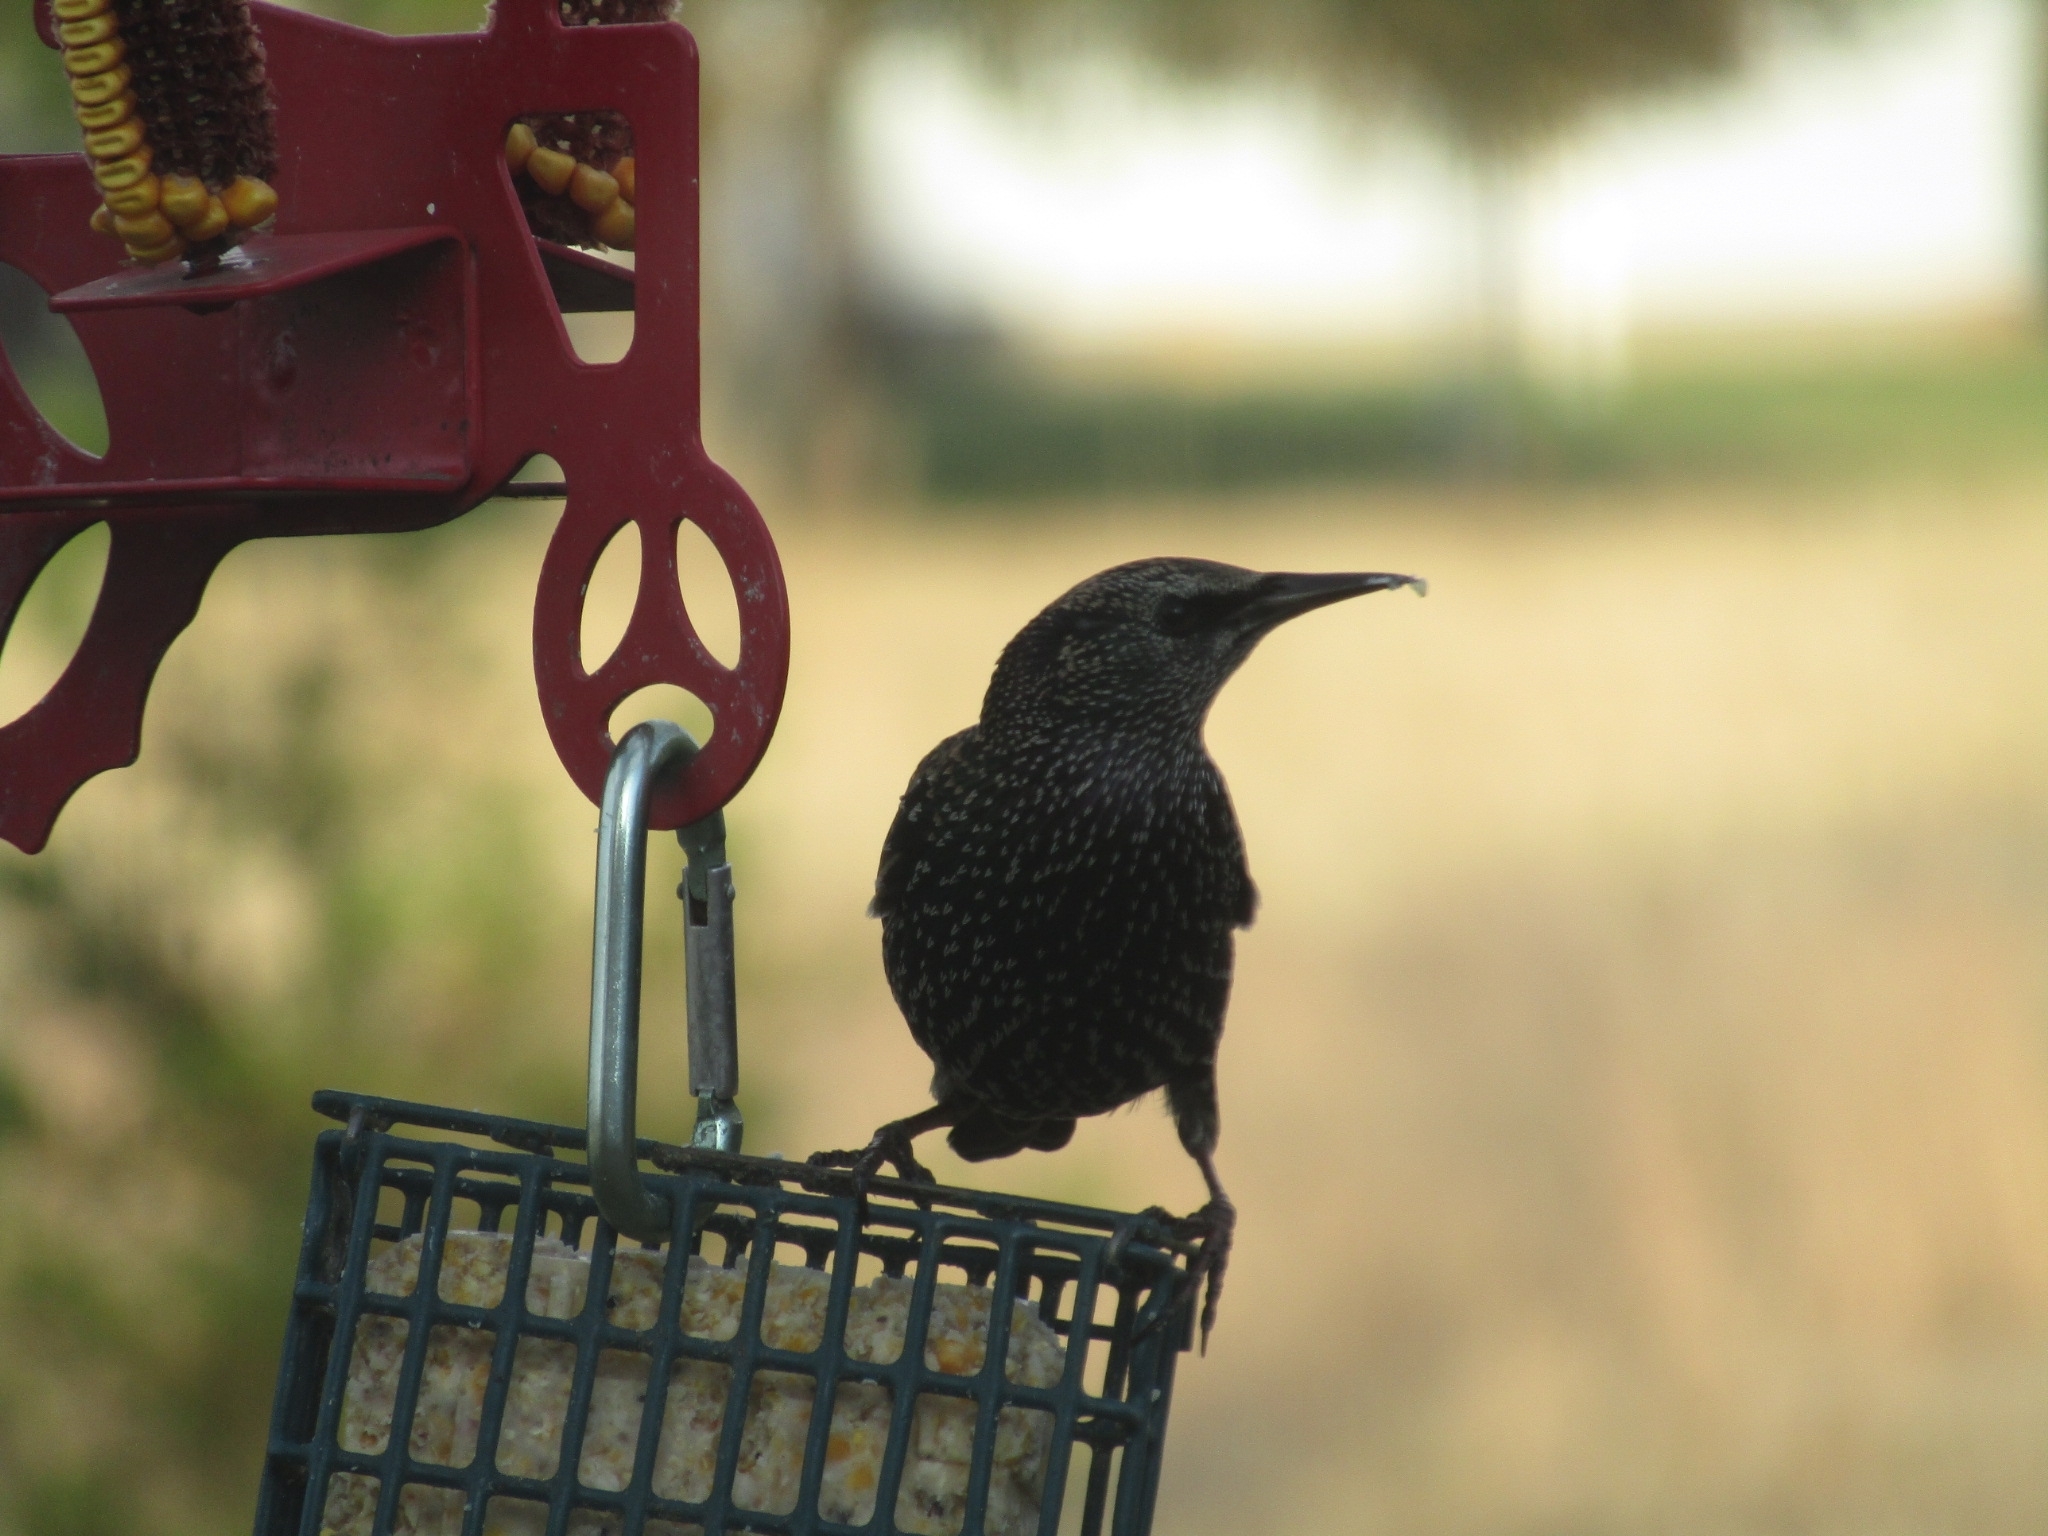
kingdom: Animalia
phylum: Chordata
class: Aves
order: Passeriformes
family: Sturnidae
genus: Sturnus
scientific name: Sturnus vulgaris
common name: Common starling
